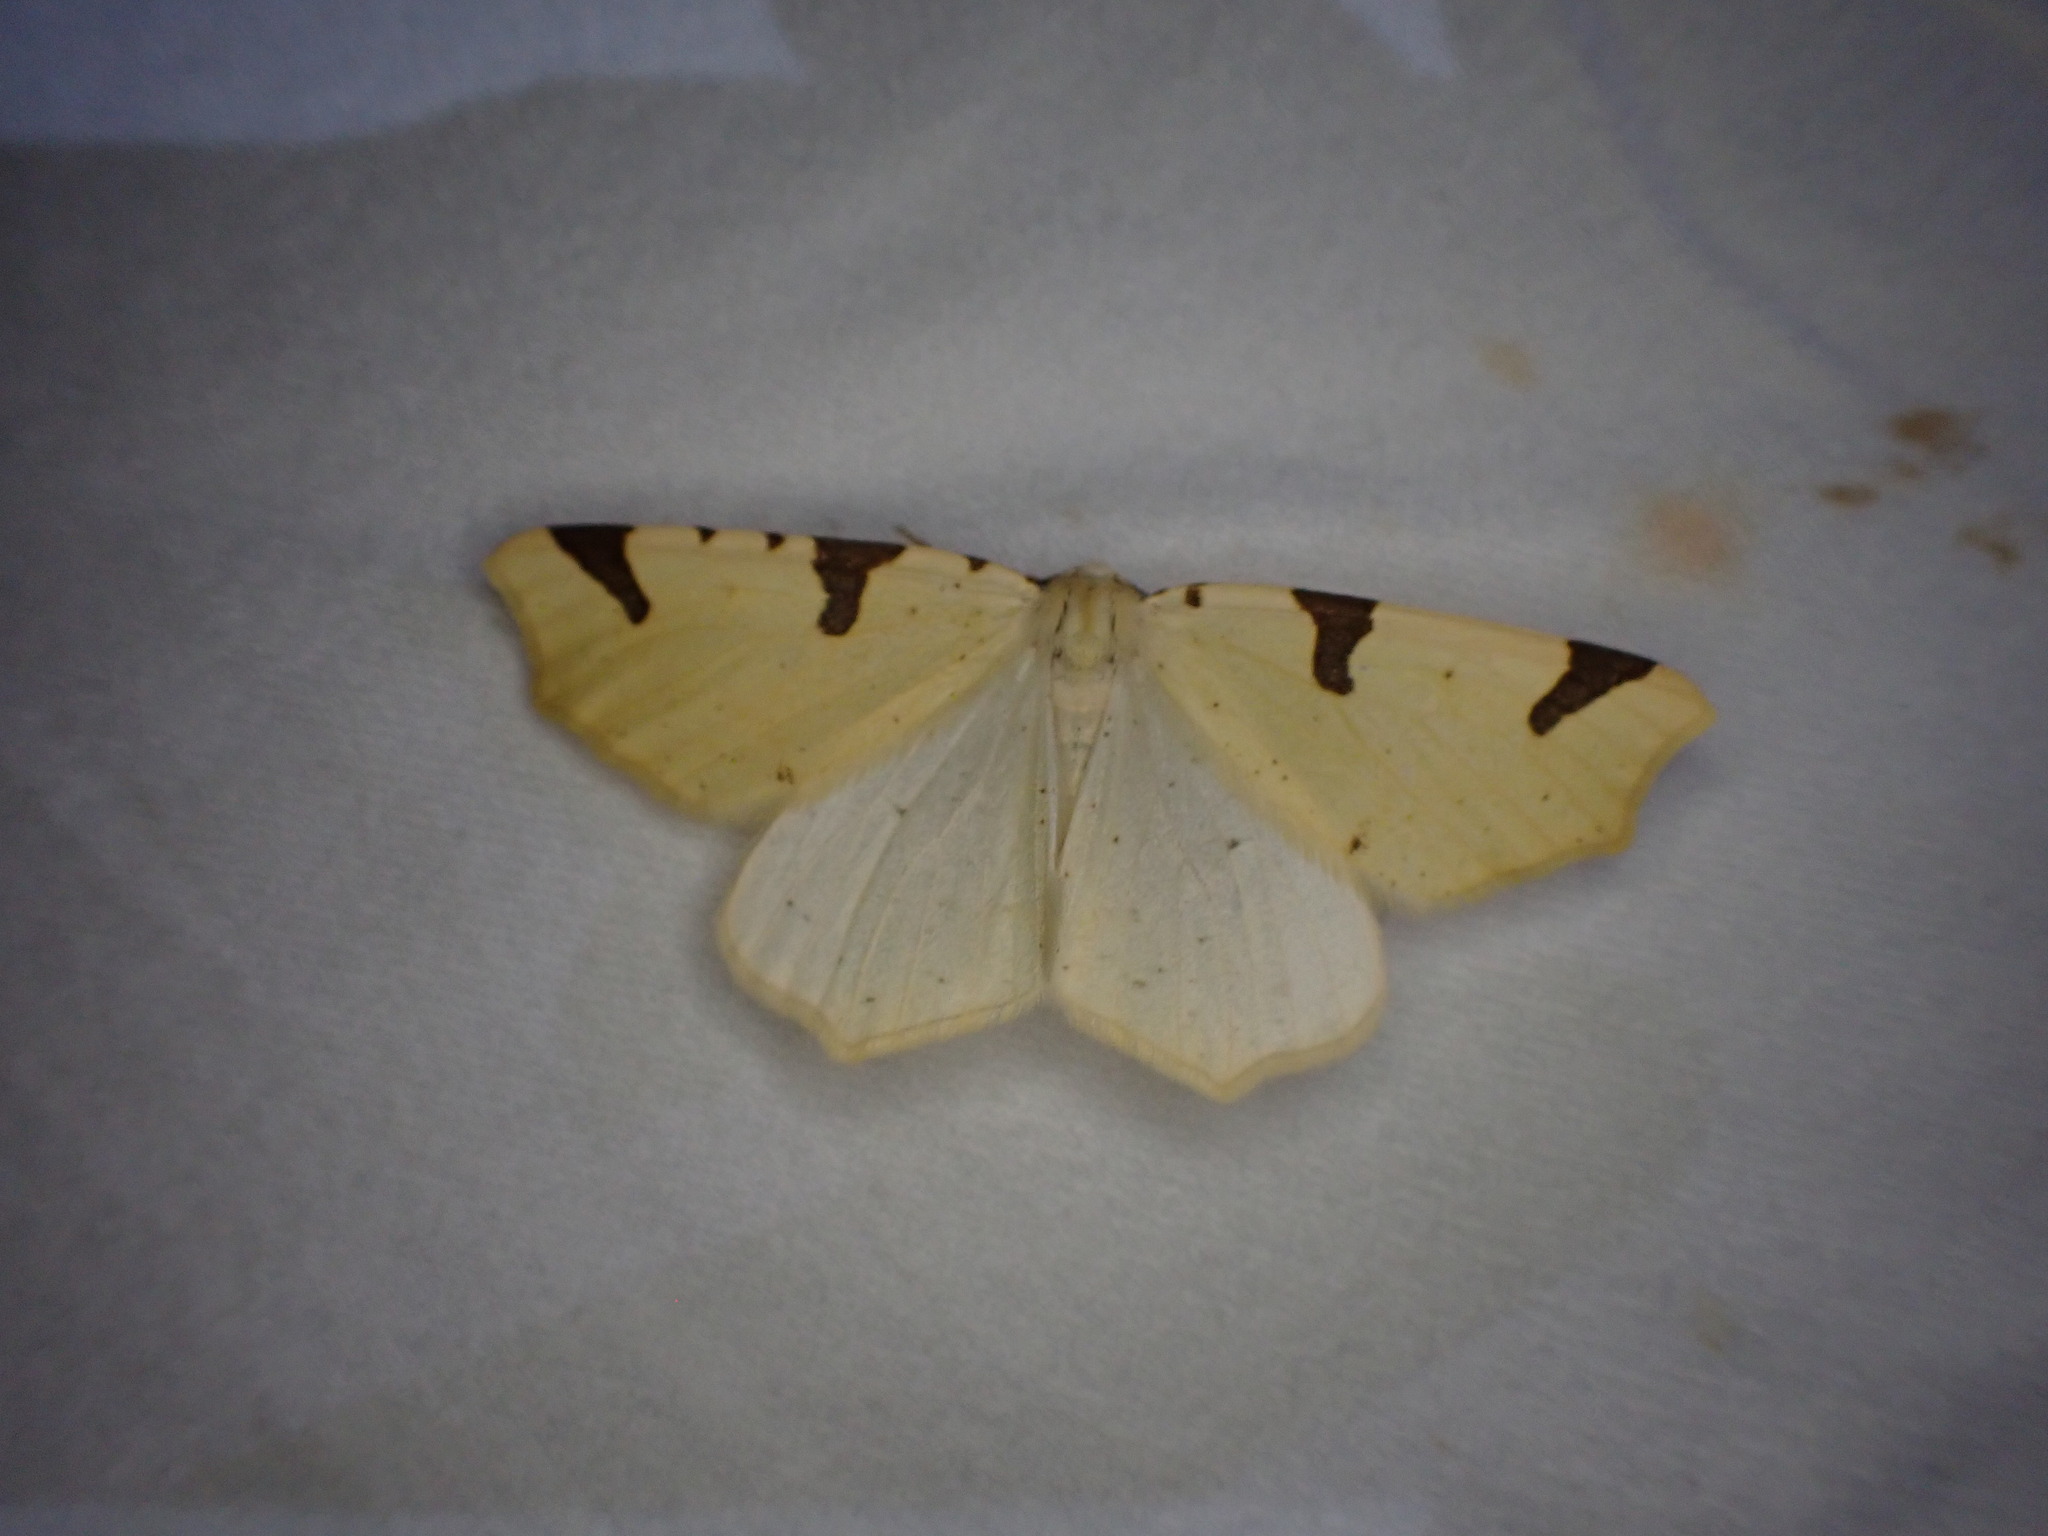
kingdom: Animalia
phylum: Arthropoda
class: Insecta
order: Lepidoptera
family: Geometridae
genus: Neoterpes
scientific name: Neoterpes trianguliferata
